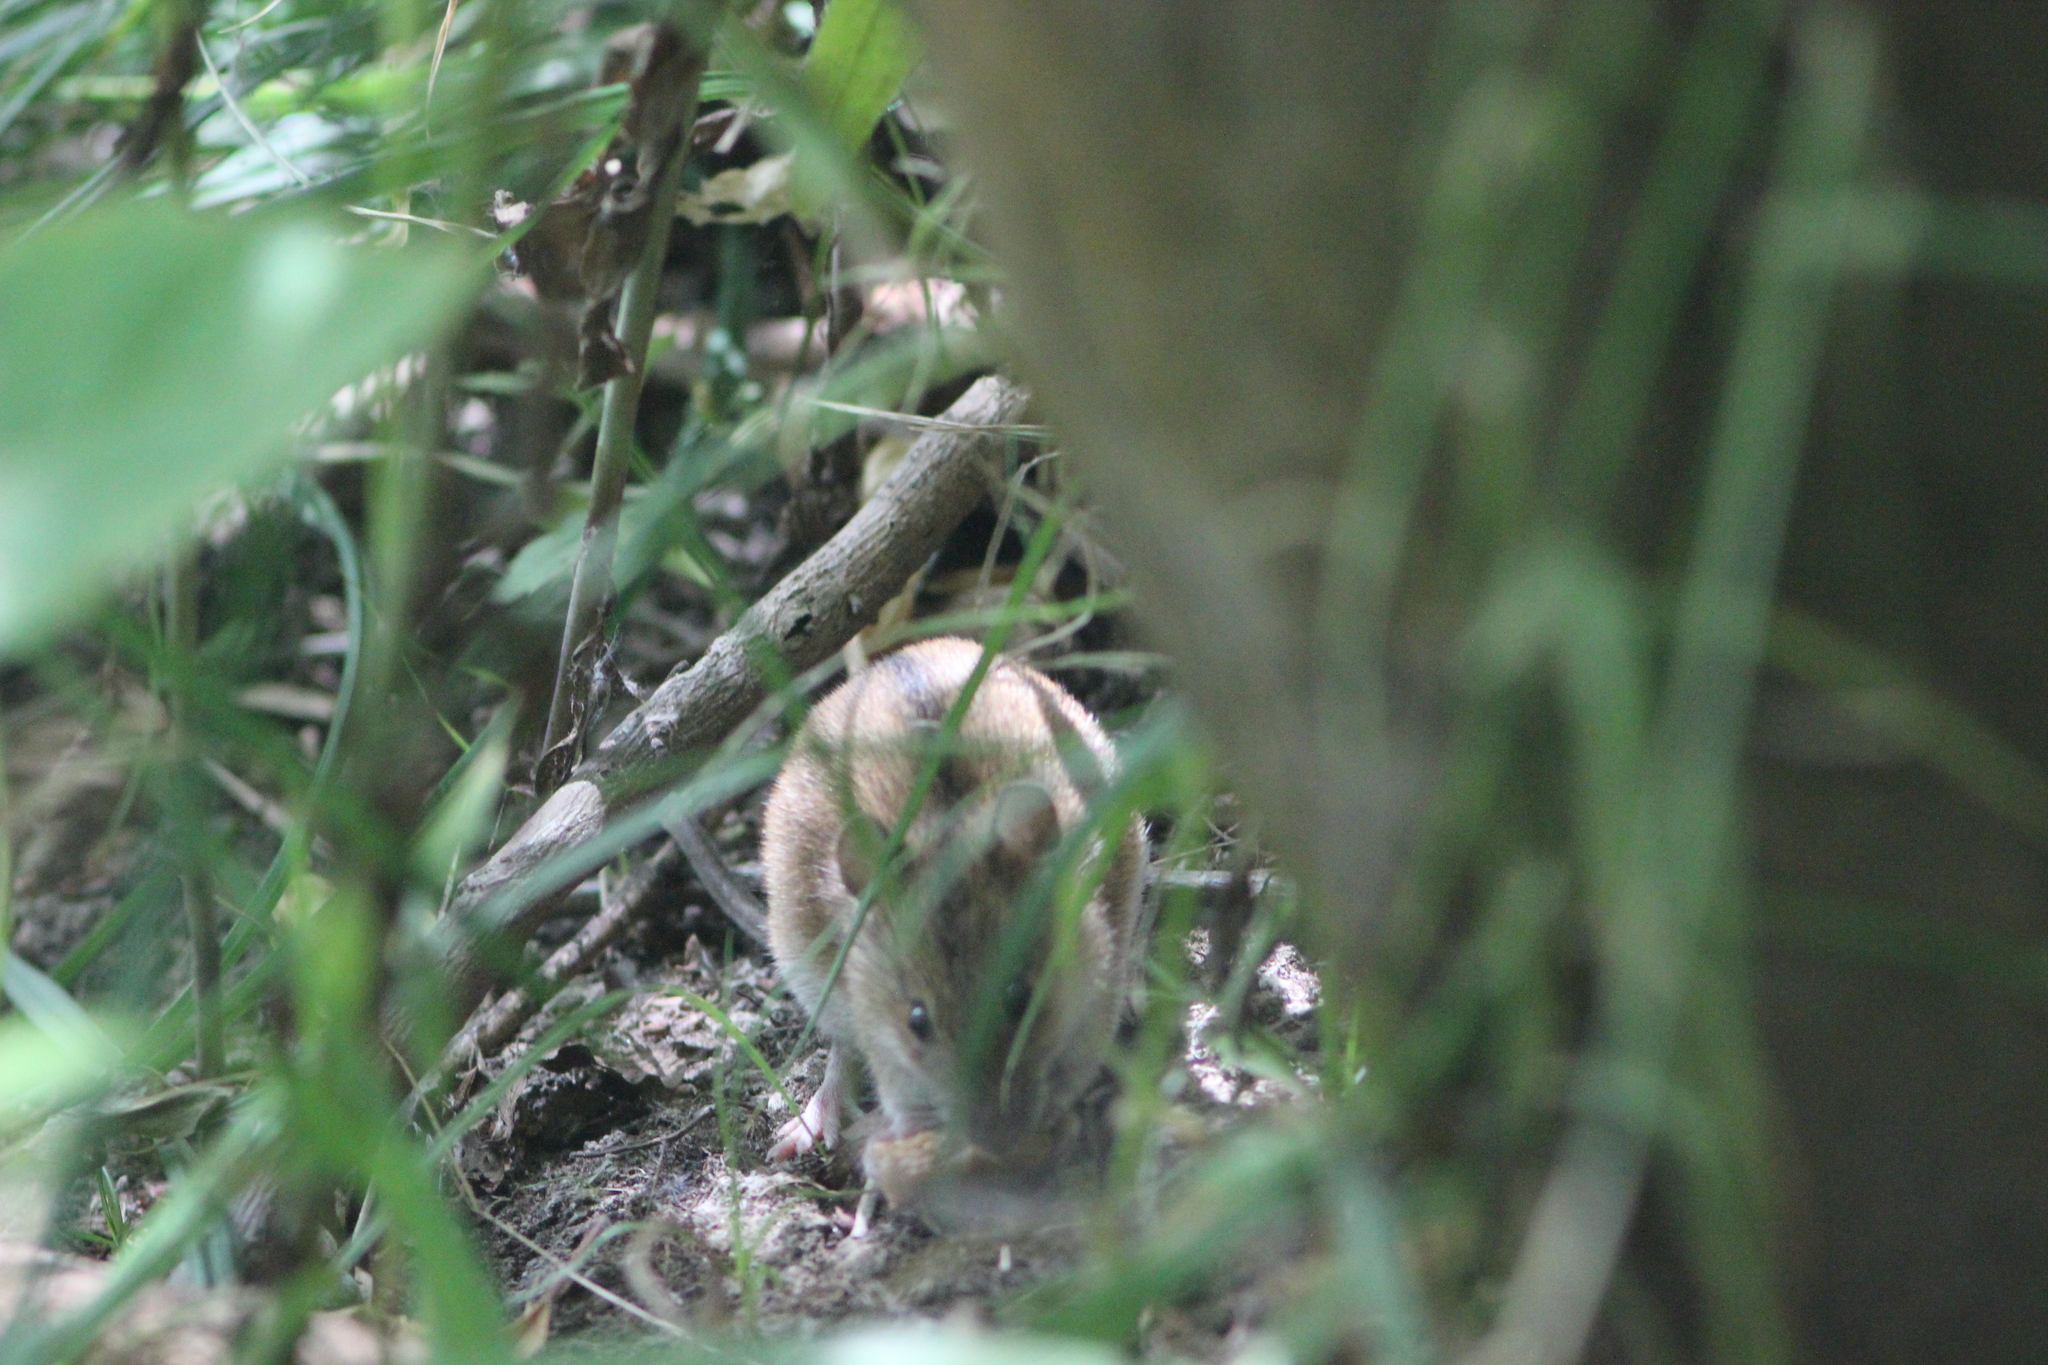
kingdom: Animalia
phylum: Chordata
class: Mammalia
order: Rodentia
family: Muridae
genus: Apodemus
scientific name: Apodemus agrarius
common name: Striped field mouse
